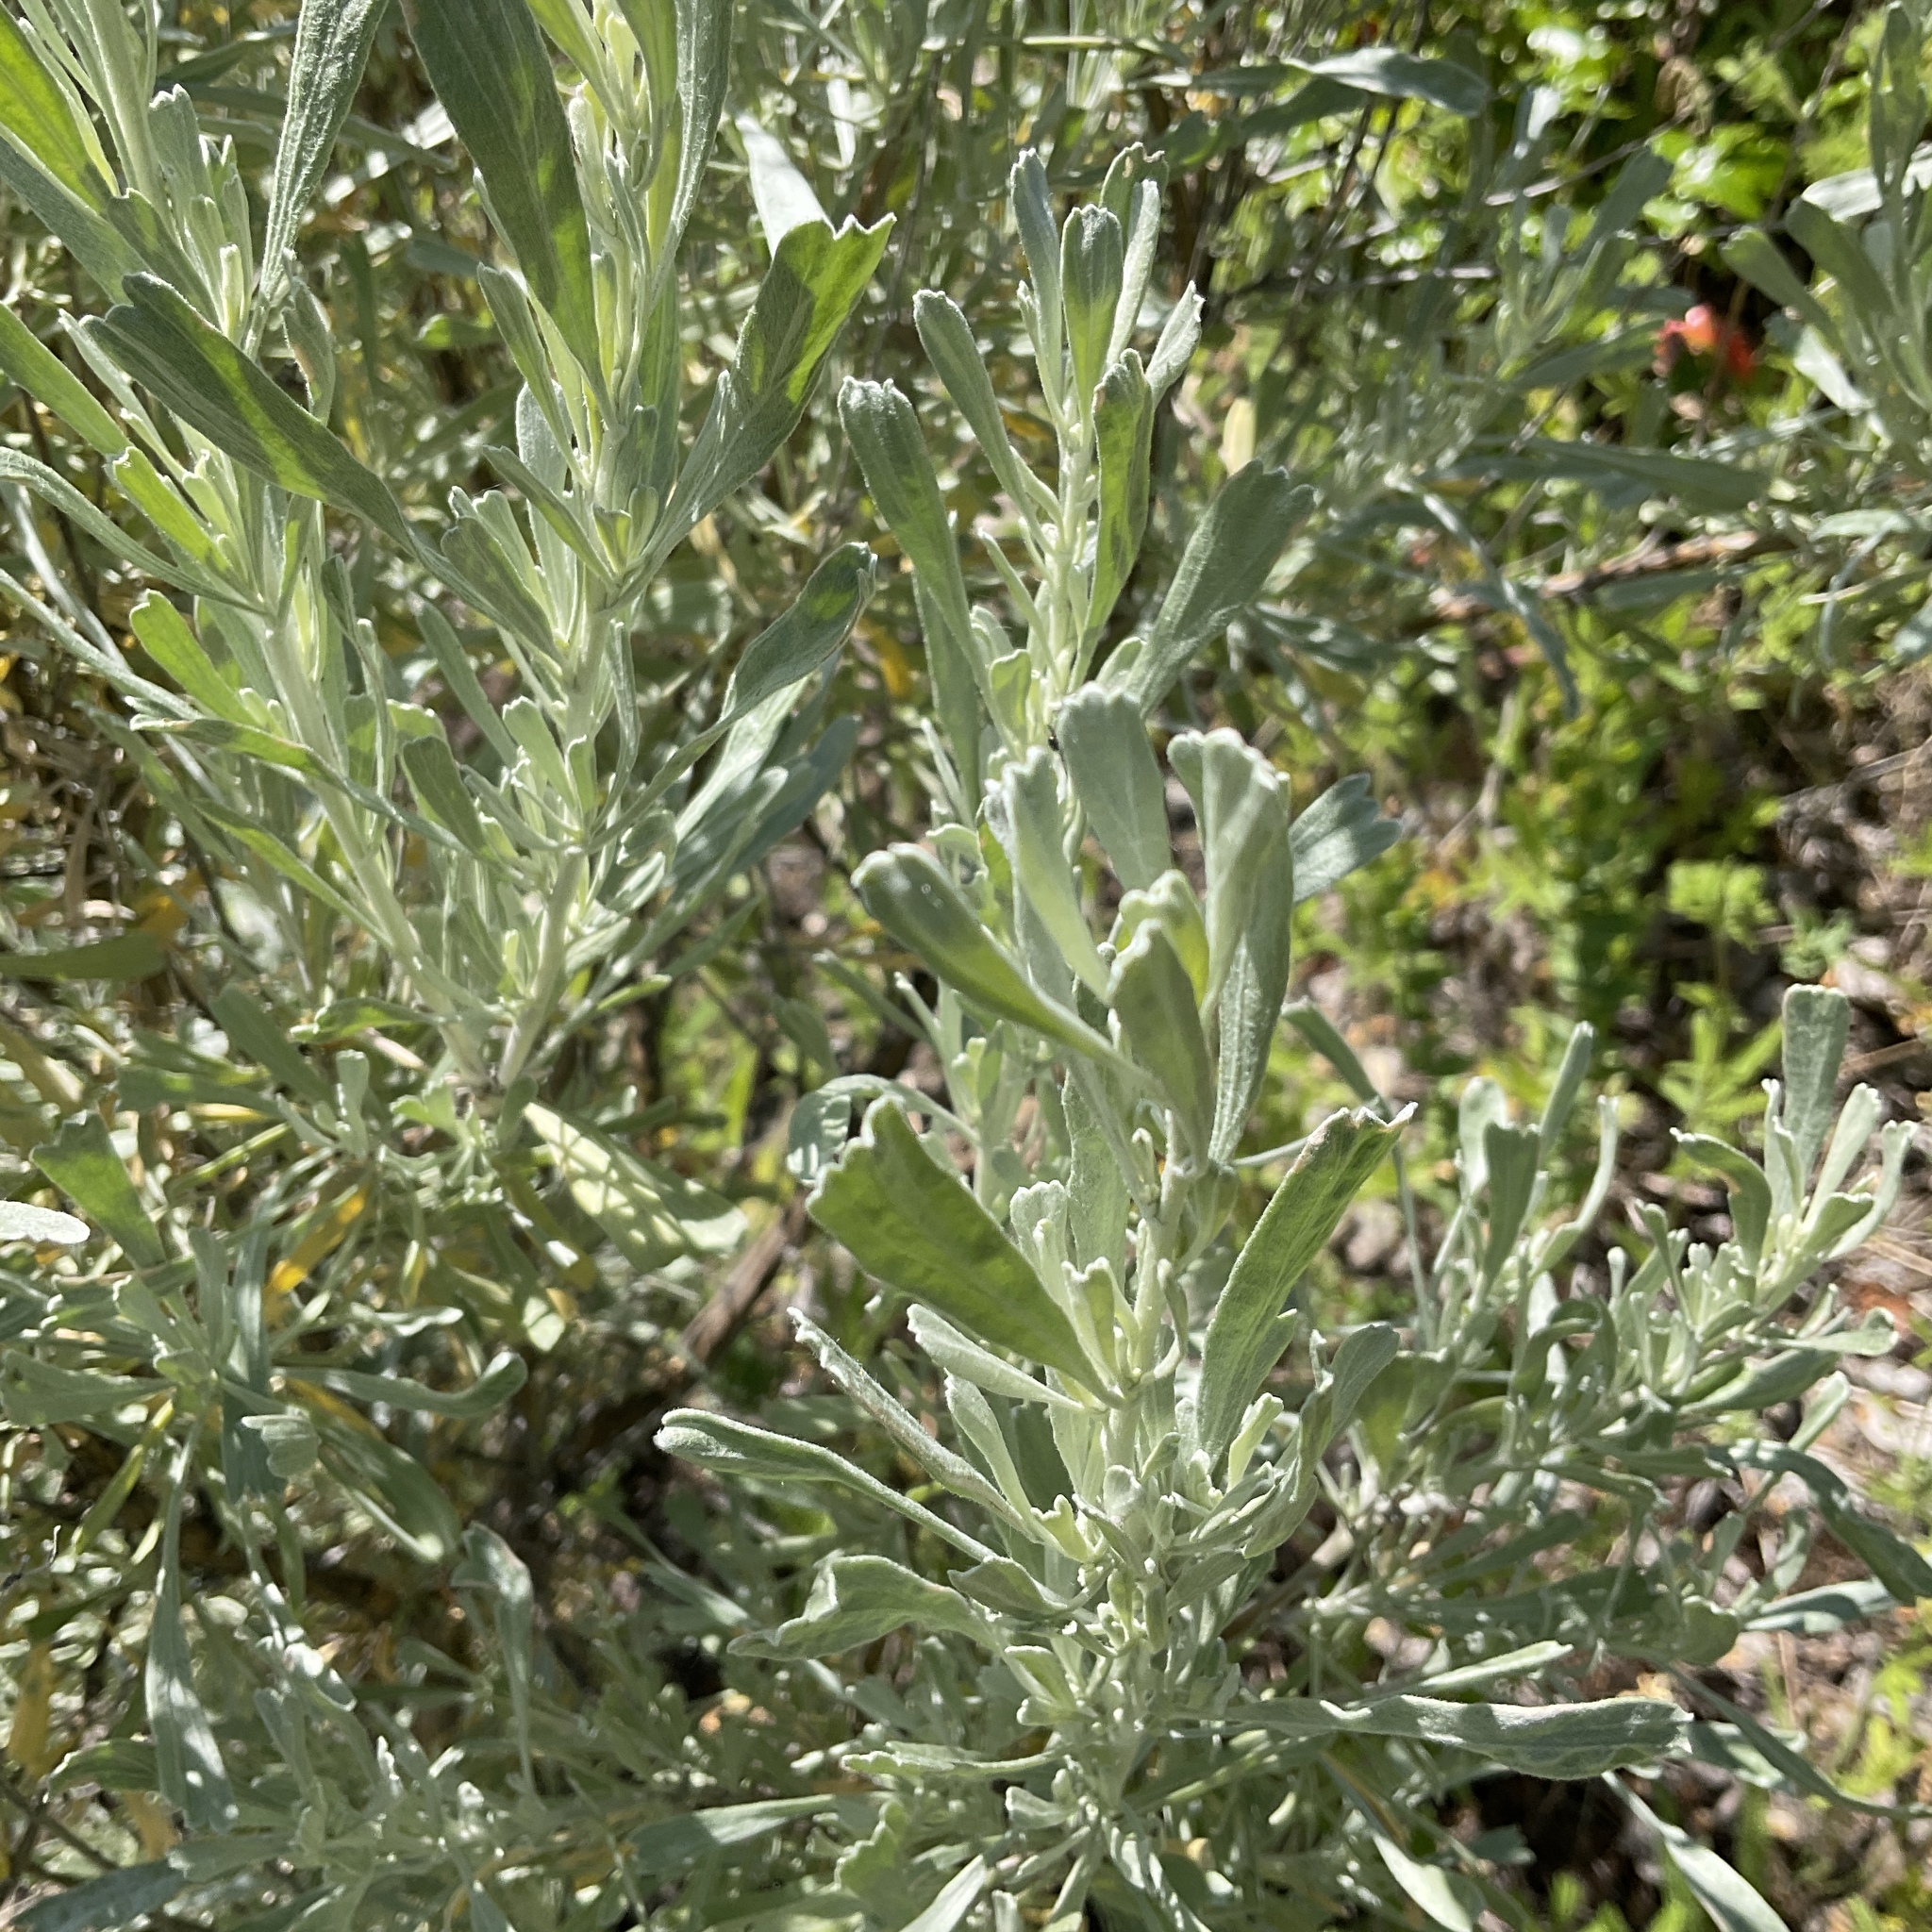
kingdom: Plantae
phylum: Tracheophyta
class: Magnoliopsida
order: Asterales
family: Asteraceae
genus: Artemisia
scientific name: Artemisia tridentata
